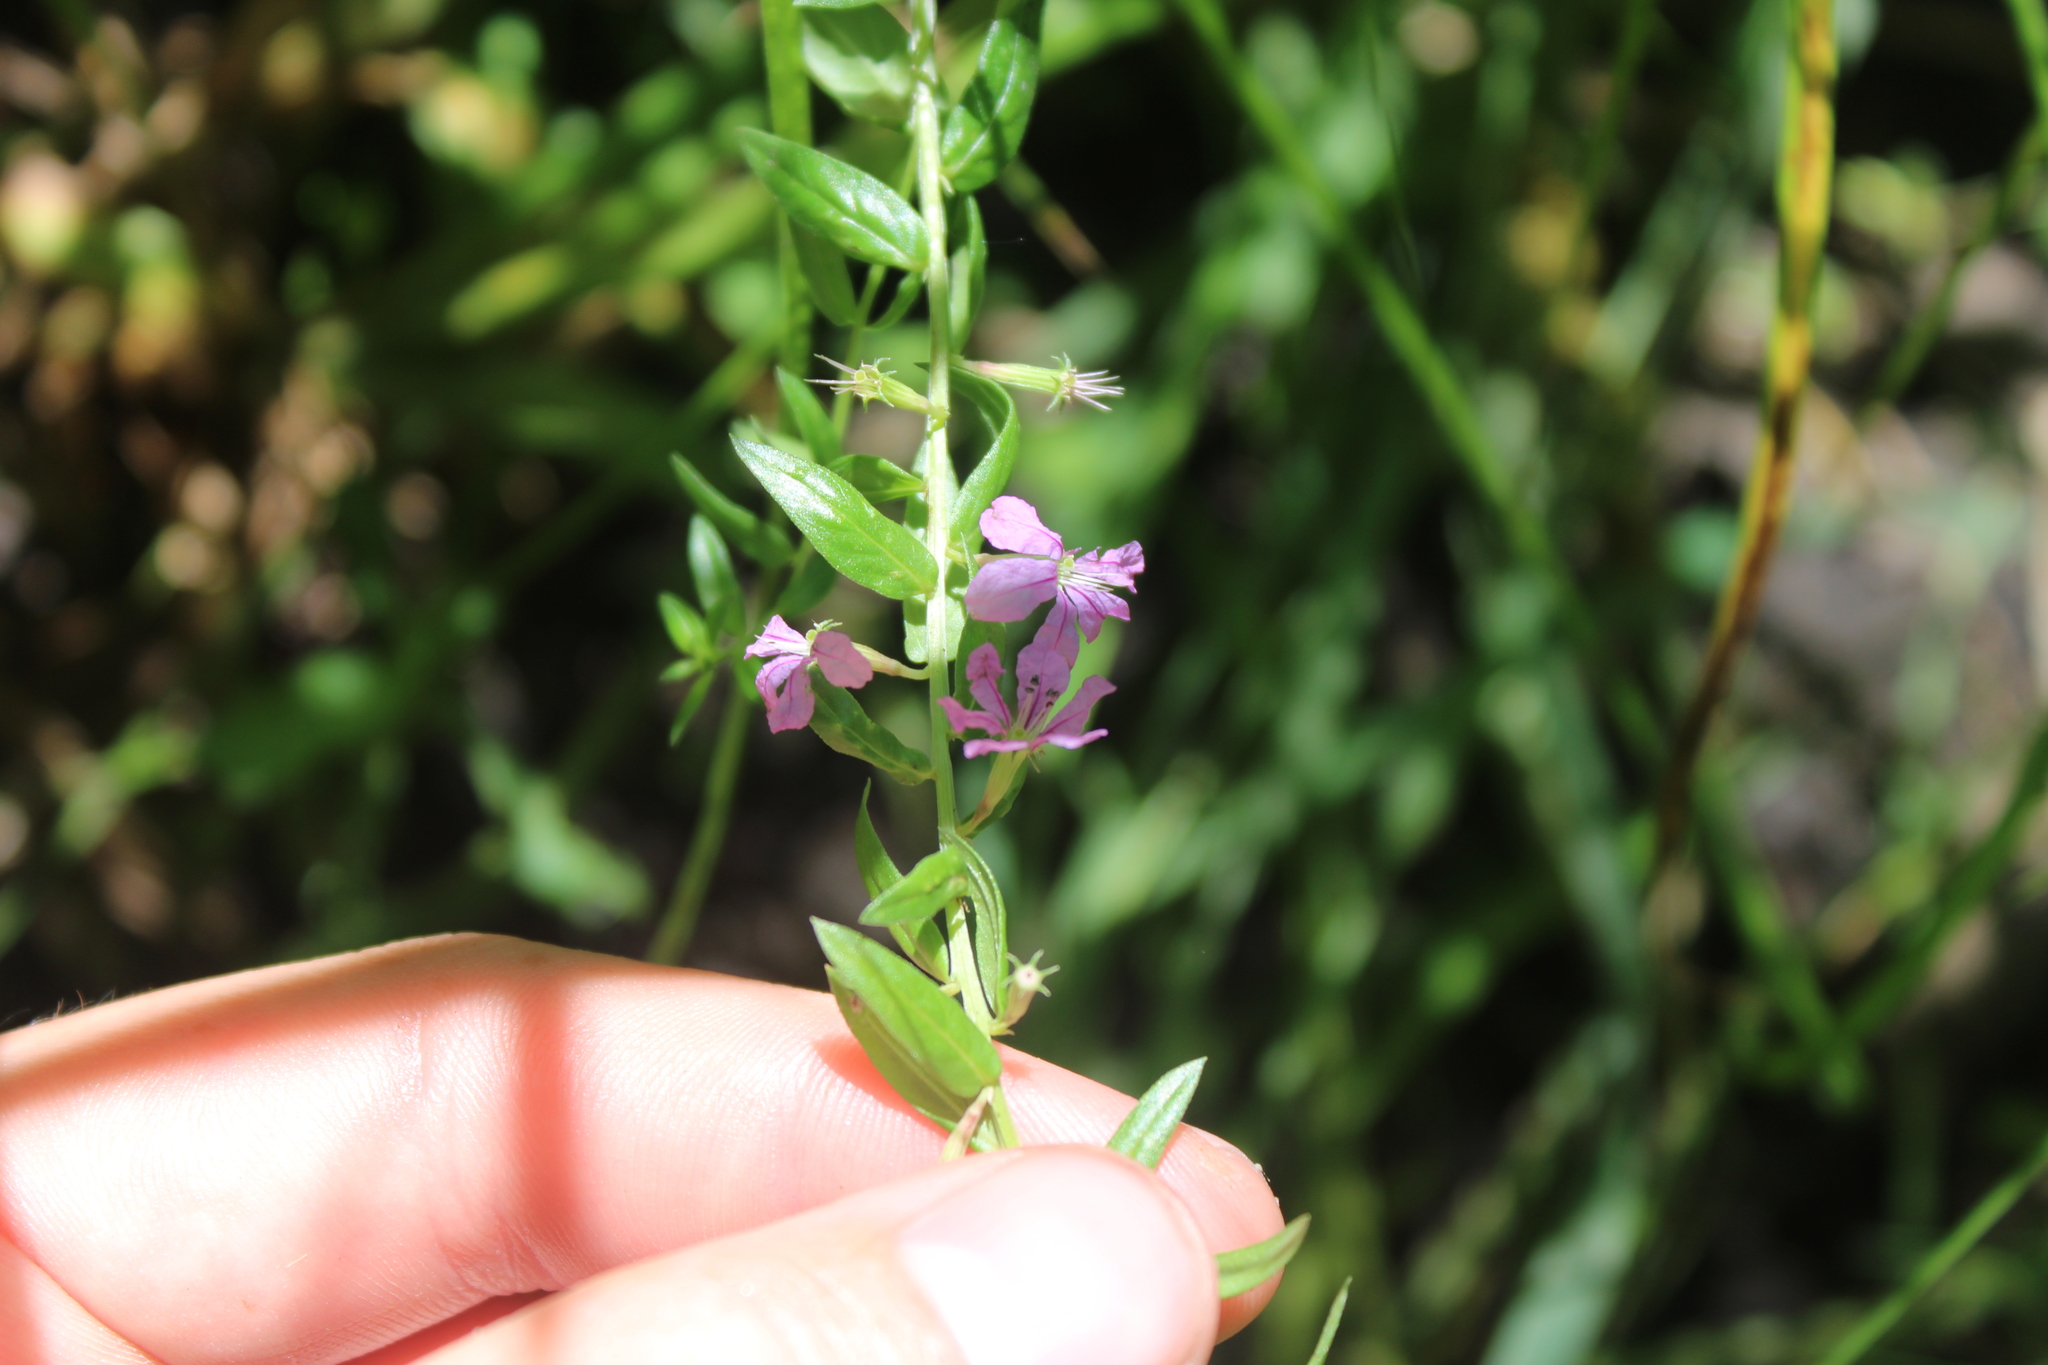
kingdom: Plantae
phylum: Tracheophyta
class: Magnoliopsida
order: Myrtales
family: Lythraceae
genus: Lythrum
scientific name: Lythrum alatum
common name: Winged loosestrife
